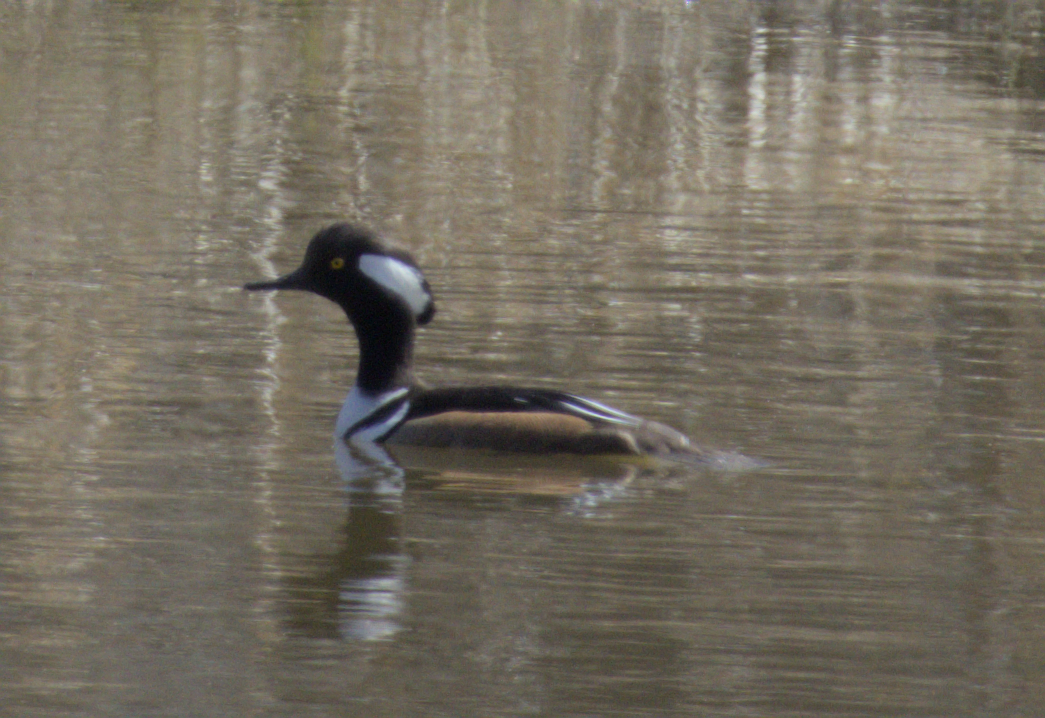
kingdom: Animalia
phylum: Chordata
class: Aves
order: Anseriformes
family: Anatidae
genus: Lophodytes
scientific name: Lophodytes cucullatus
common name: Hooded merganser
